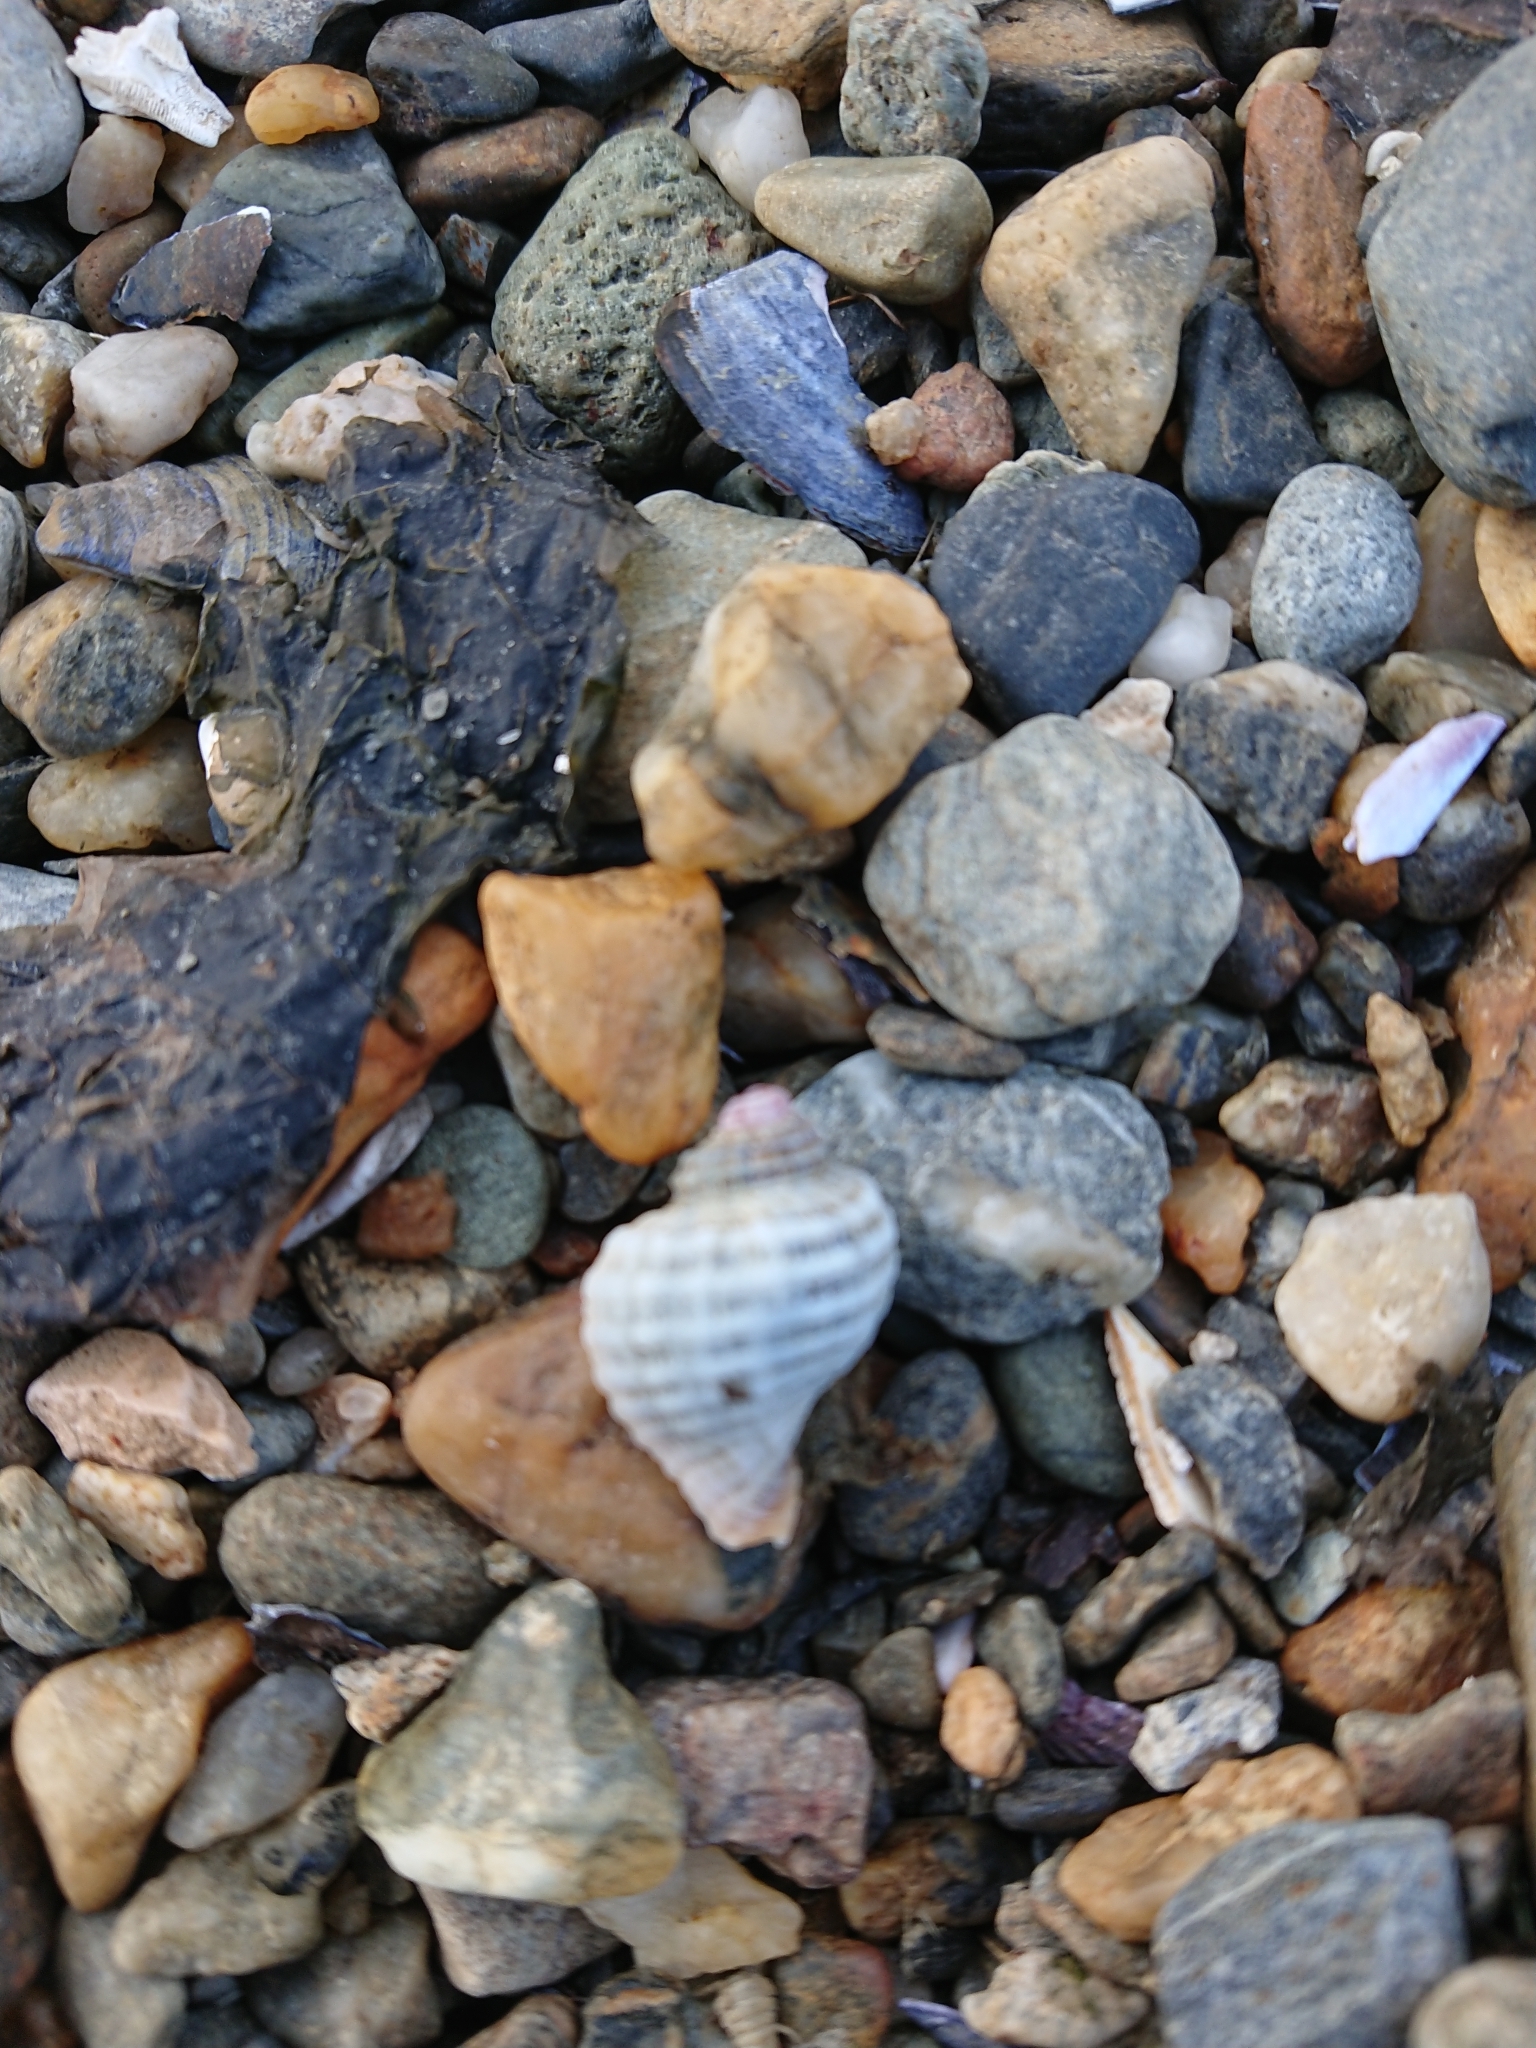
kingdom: Animalia
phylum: Mollusca
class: Gastropoda
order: Neogastropoda
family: Muricidae
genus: Trophon
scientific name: Trophon geversianus
